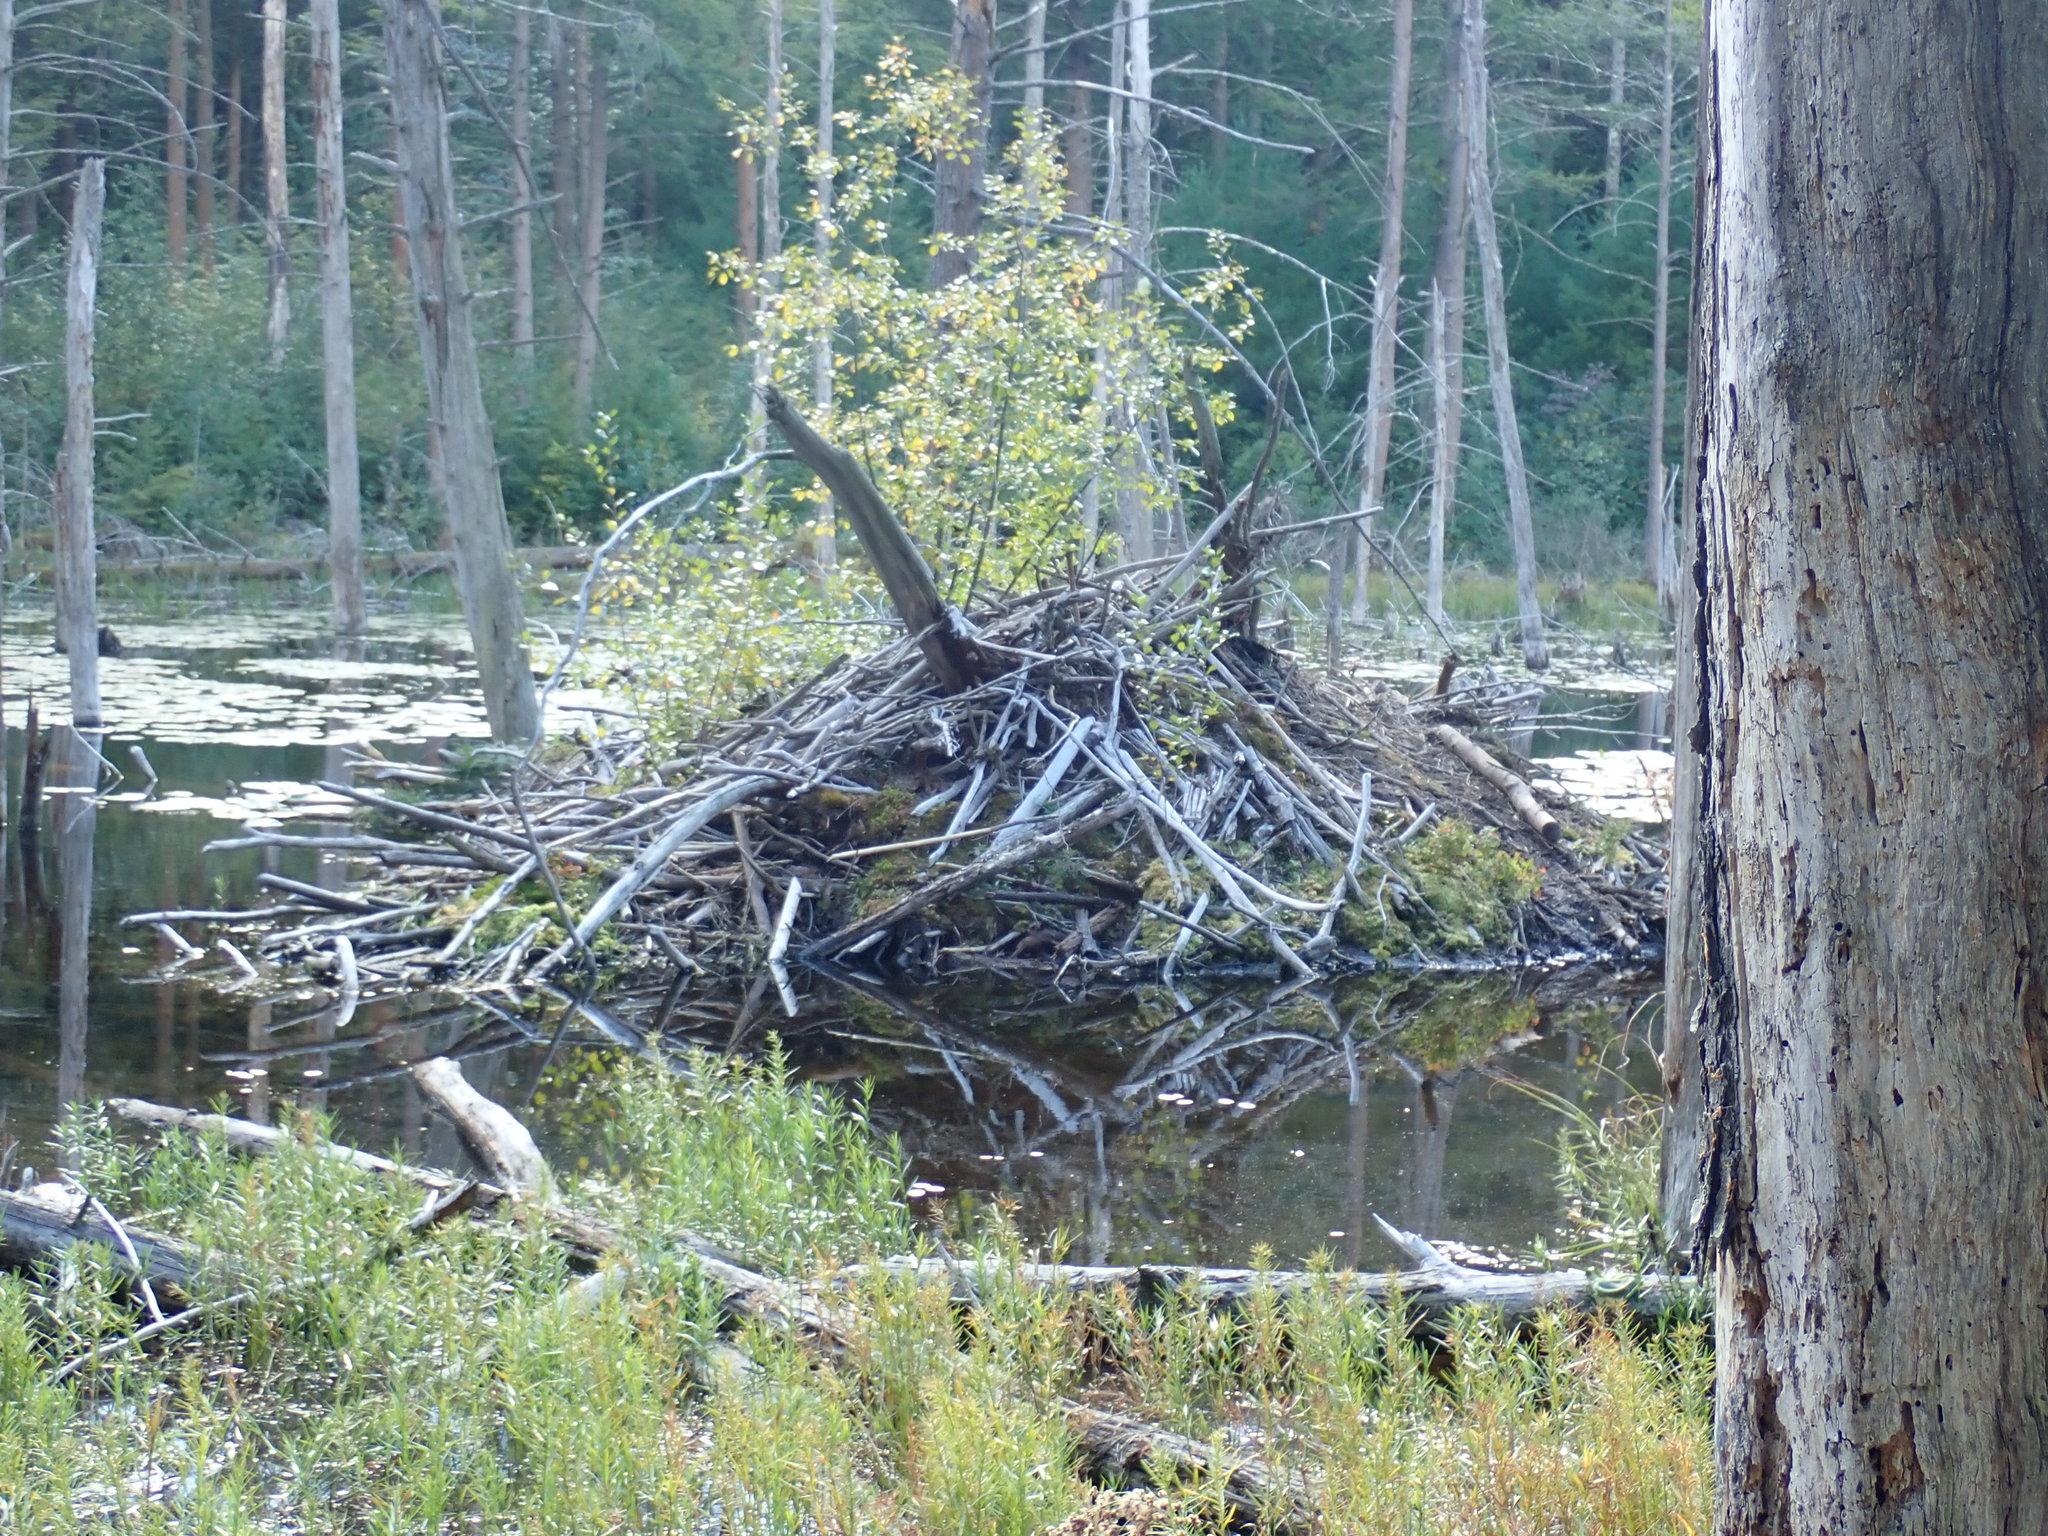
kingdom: Animalia
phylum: Chordata
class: Mammalia
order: Rodentia
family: Castoridae
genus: Castor
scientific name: Castor canadensis
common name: American beaver
